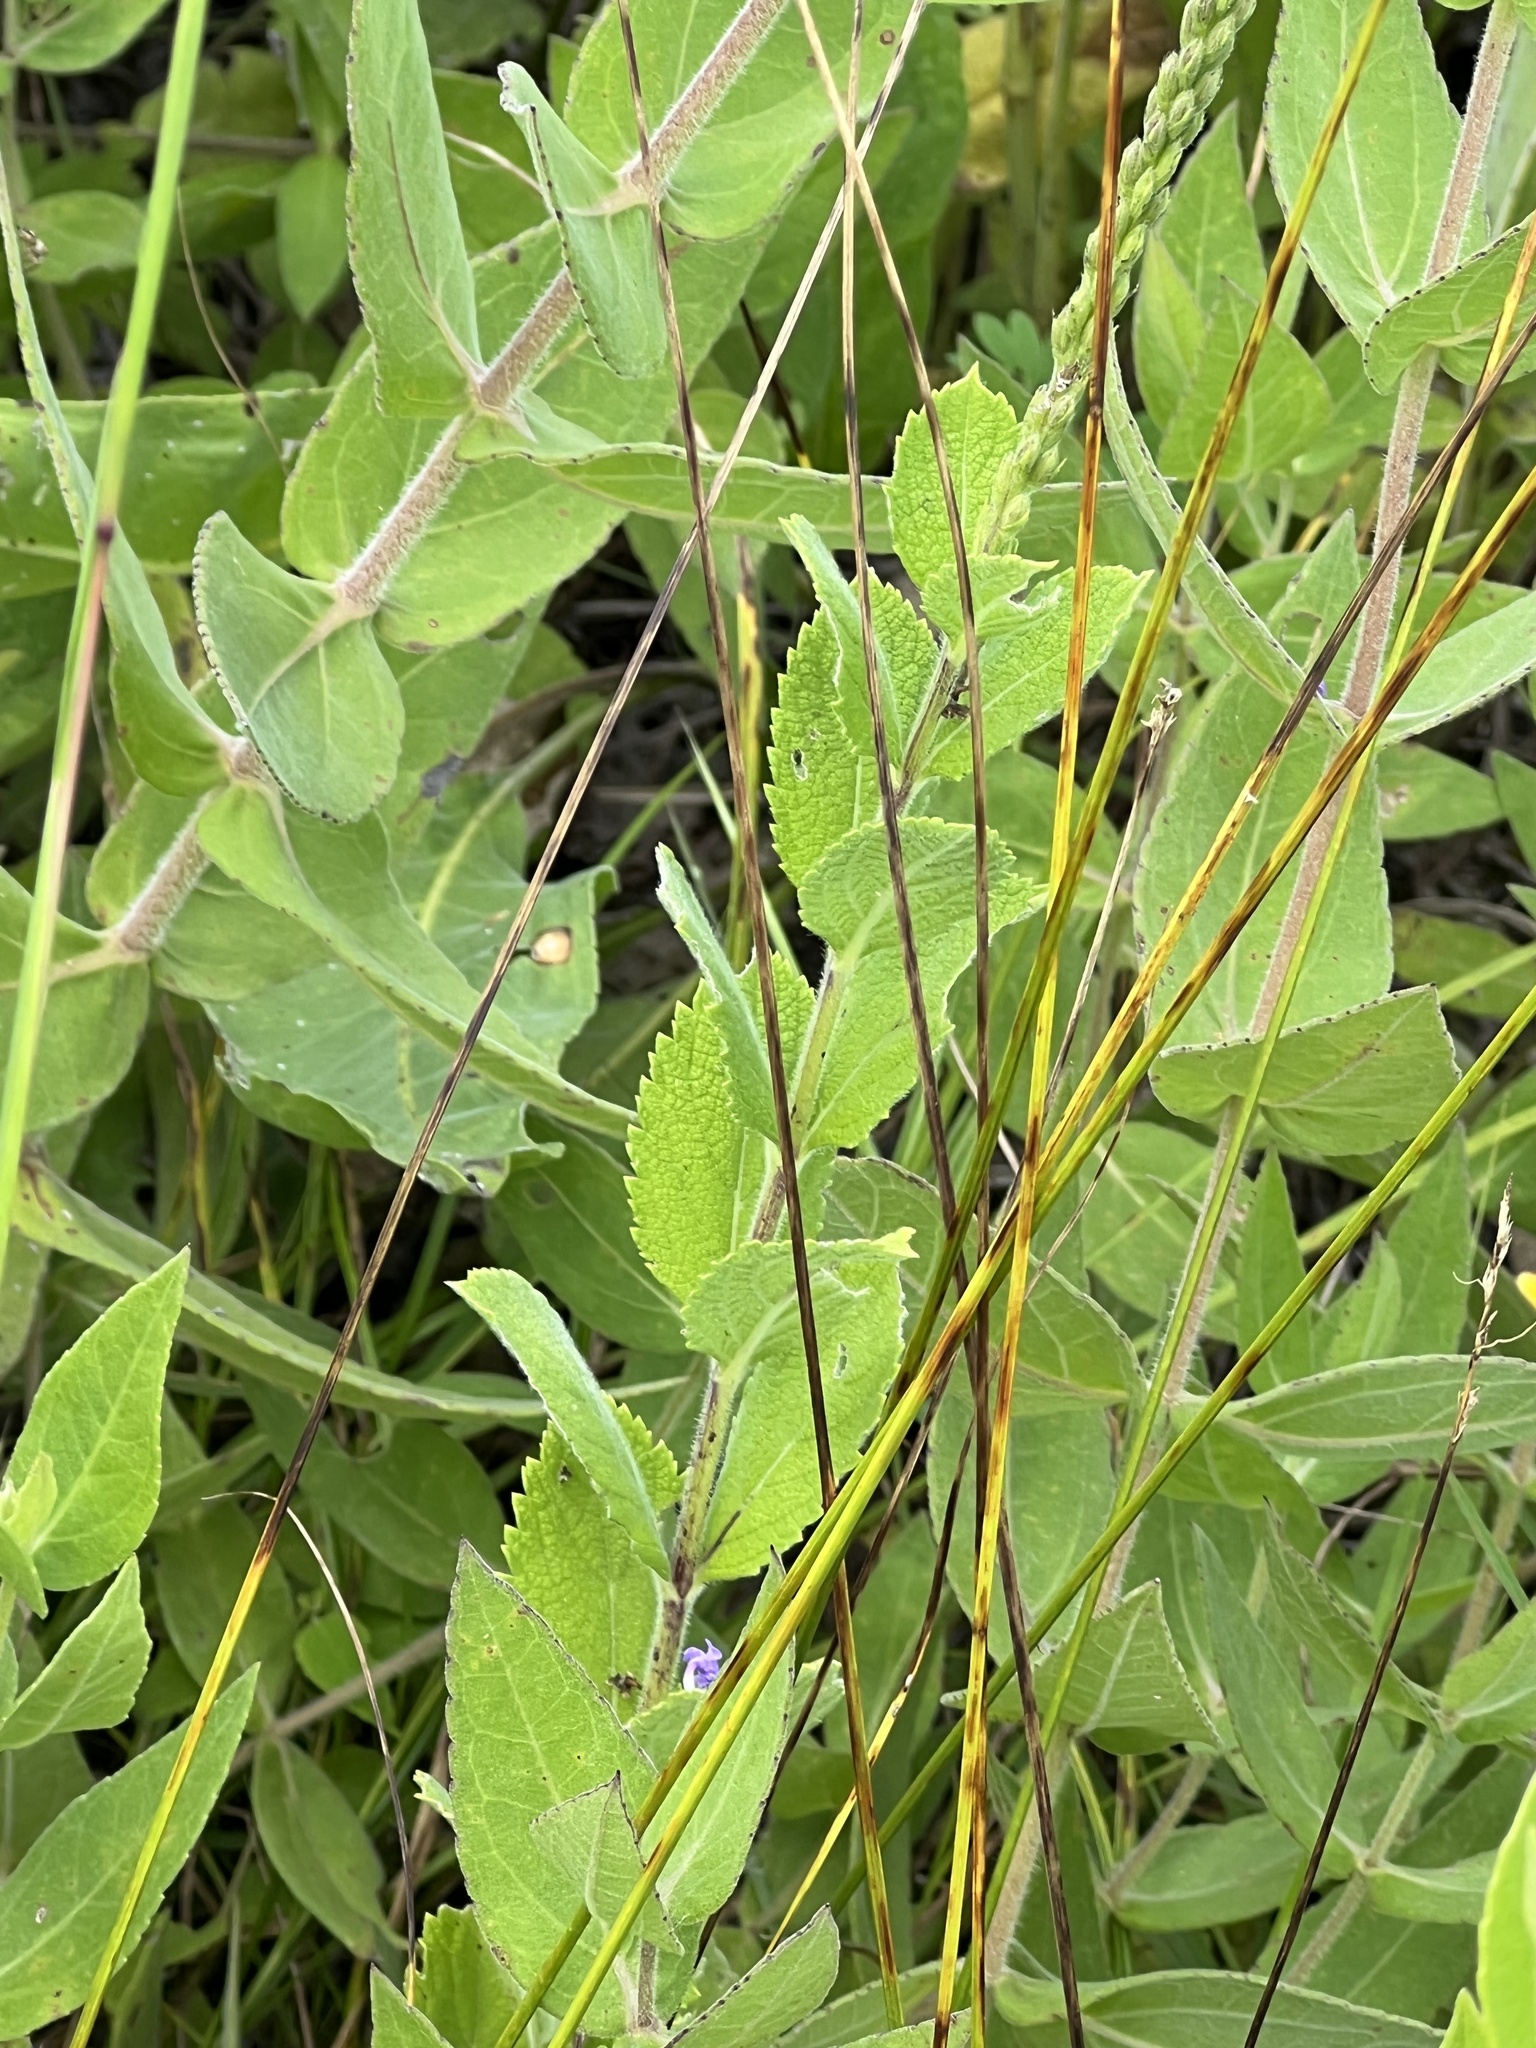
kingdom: Plantae
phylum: Tracheophyta
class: Magnoliopsida
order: Lamiales
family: Verbenaceae
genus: Verbena
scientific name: Verbena stricta
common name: Hoary vervain
